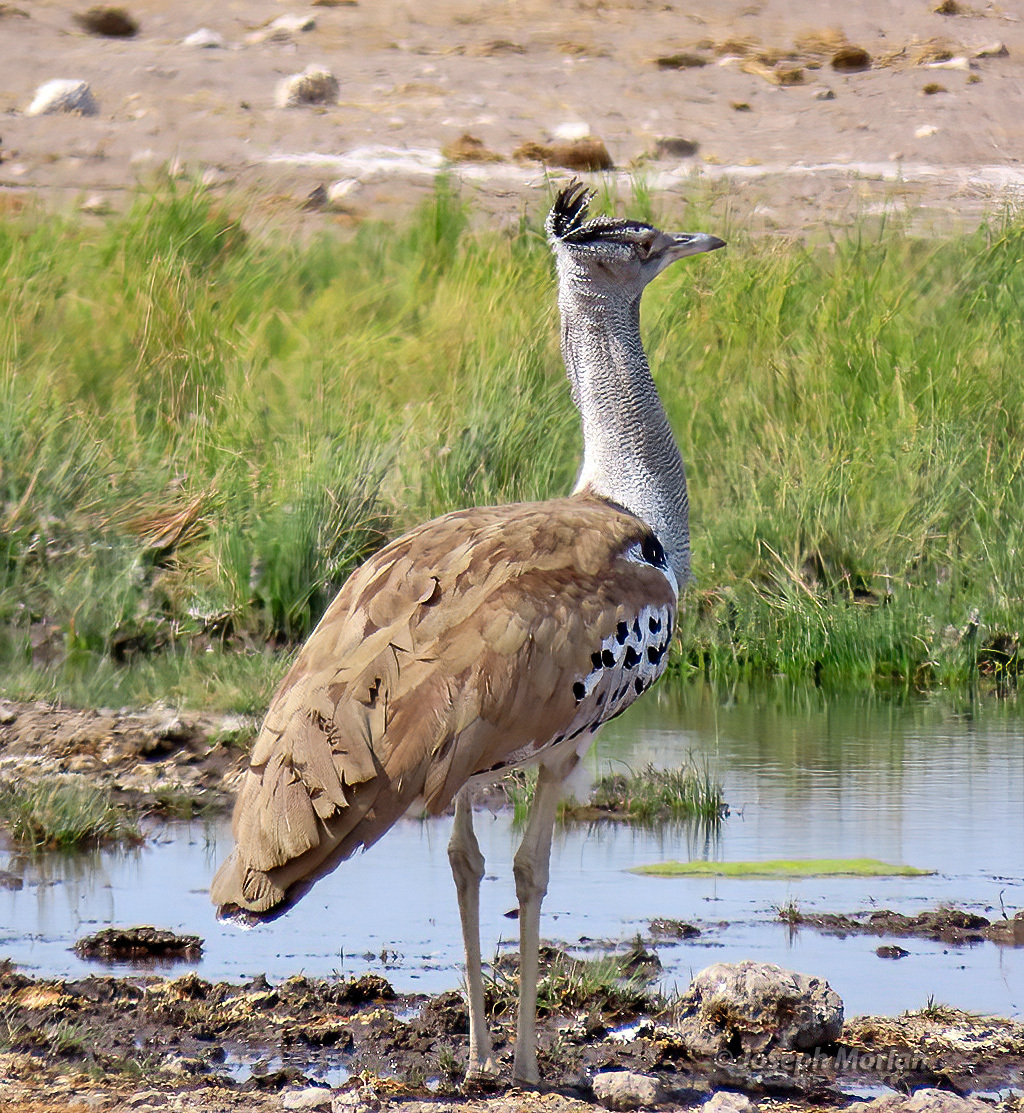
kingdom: Animalia
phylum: Chordata
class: Aves
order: Otidiformes
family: Otididae
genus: Ardeotis
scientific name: Ardeotis kori
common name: Kori bustard
